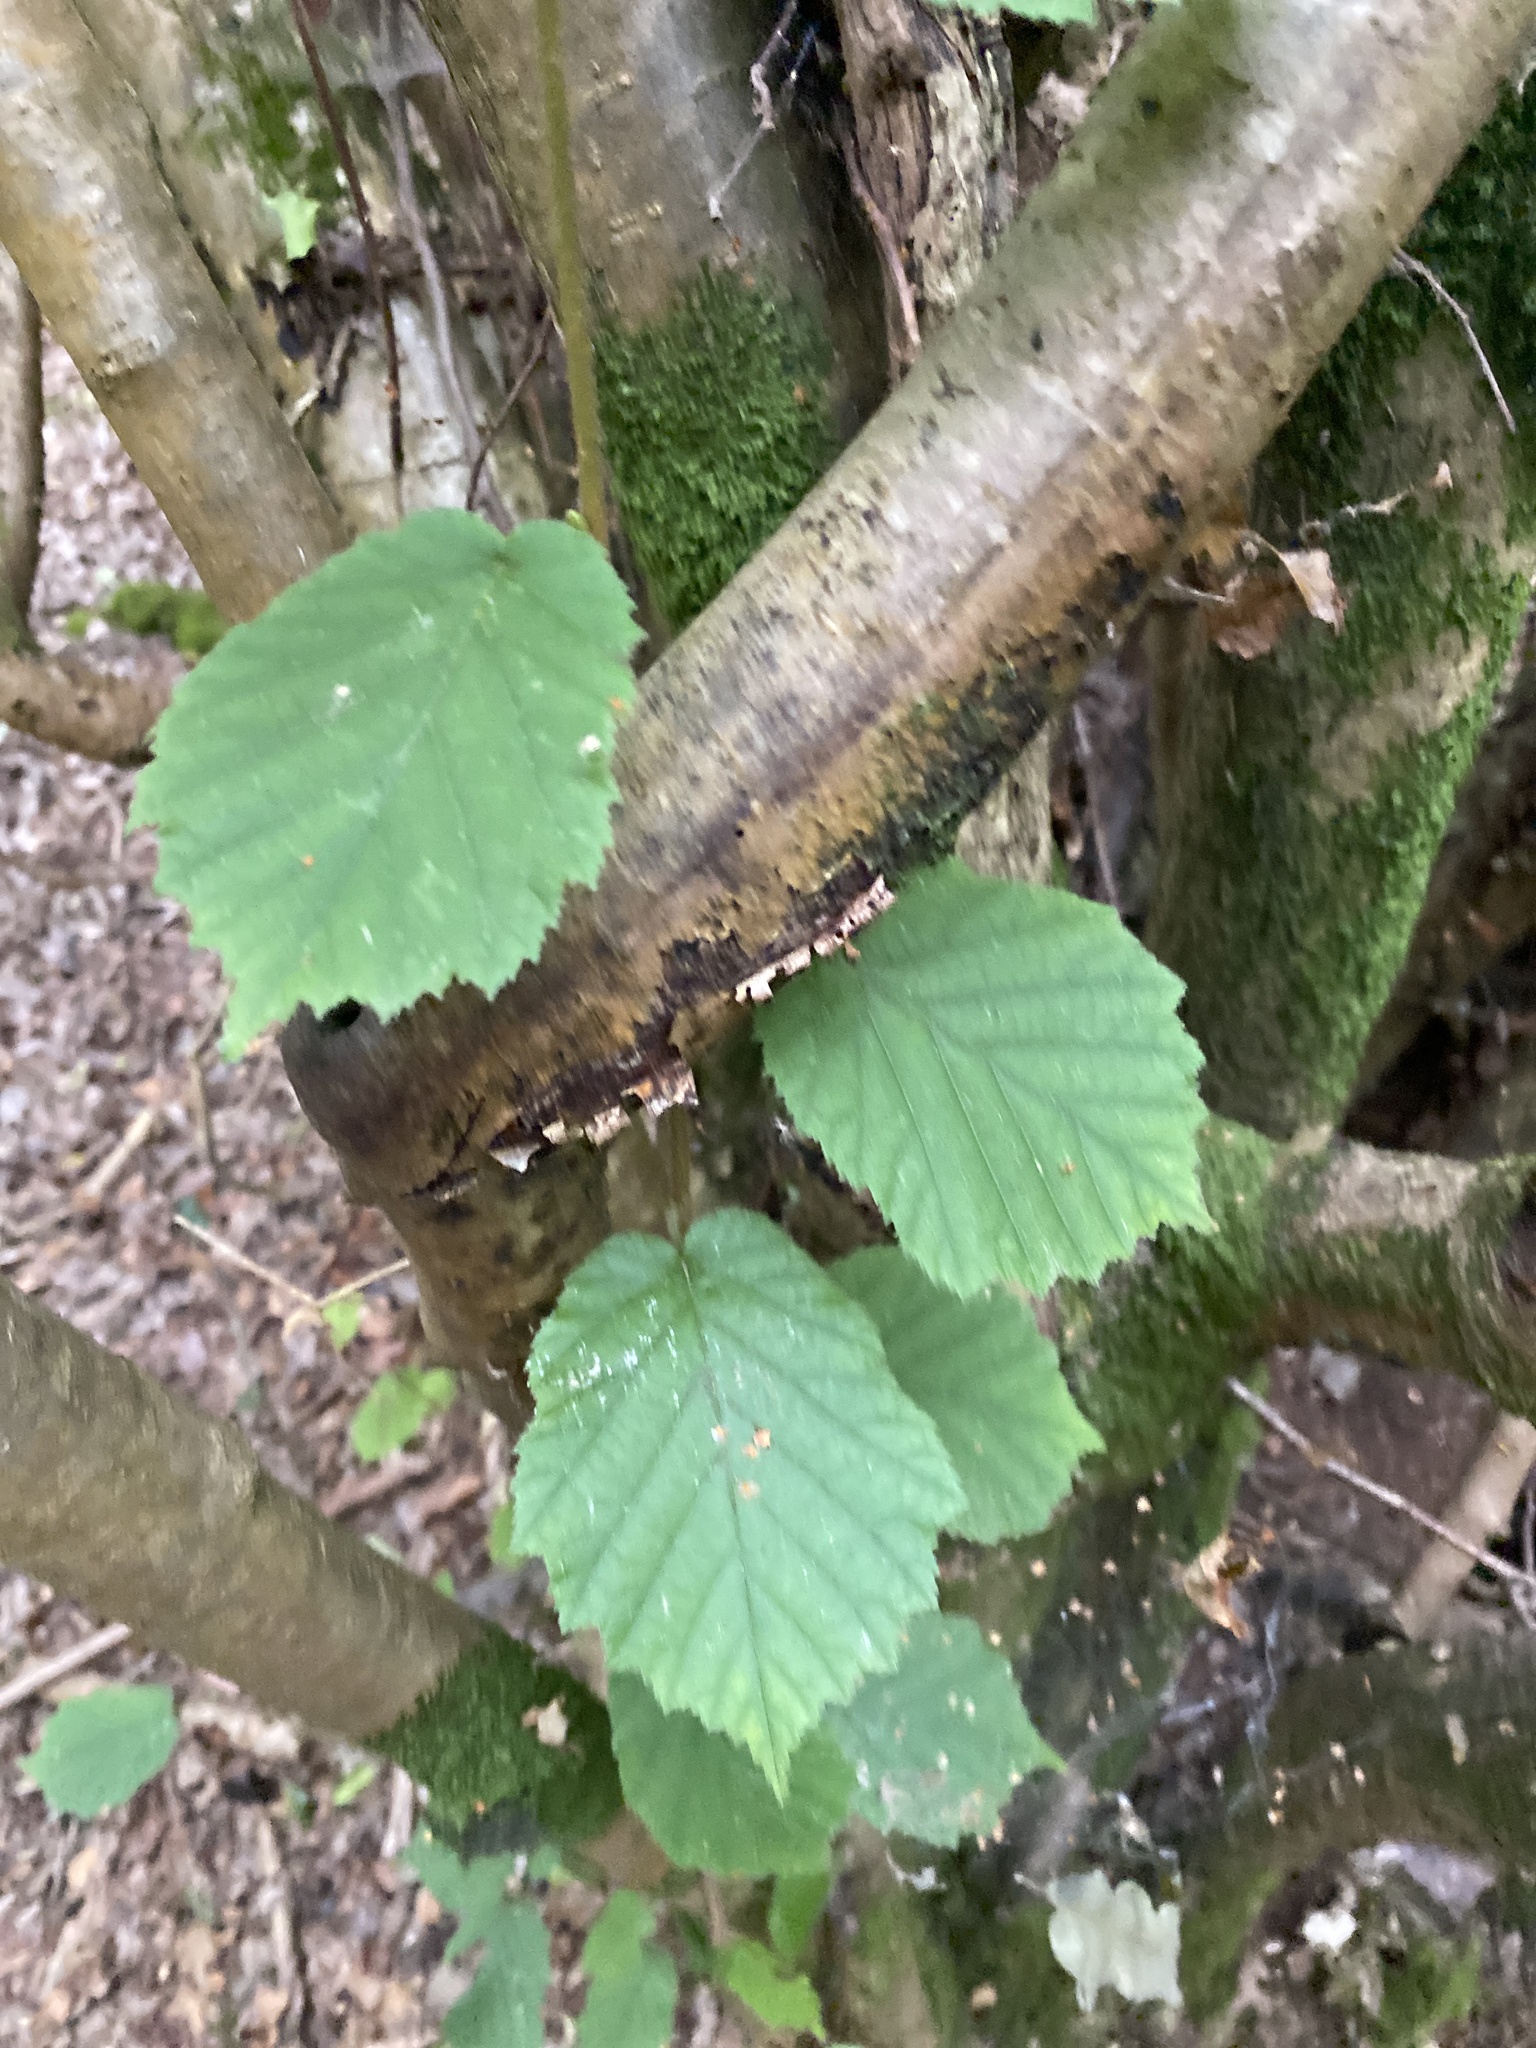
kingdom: Plantae
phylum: Tracheophyta
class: Magnoliopsida
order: Fagales
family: Betulaceae
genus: Corylus
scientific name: Corylus avellana
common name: European hazel
